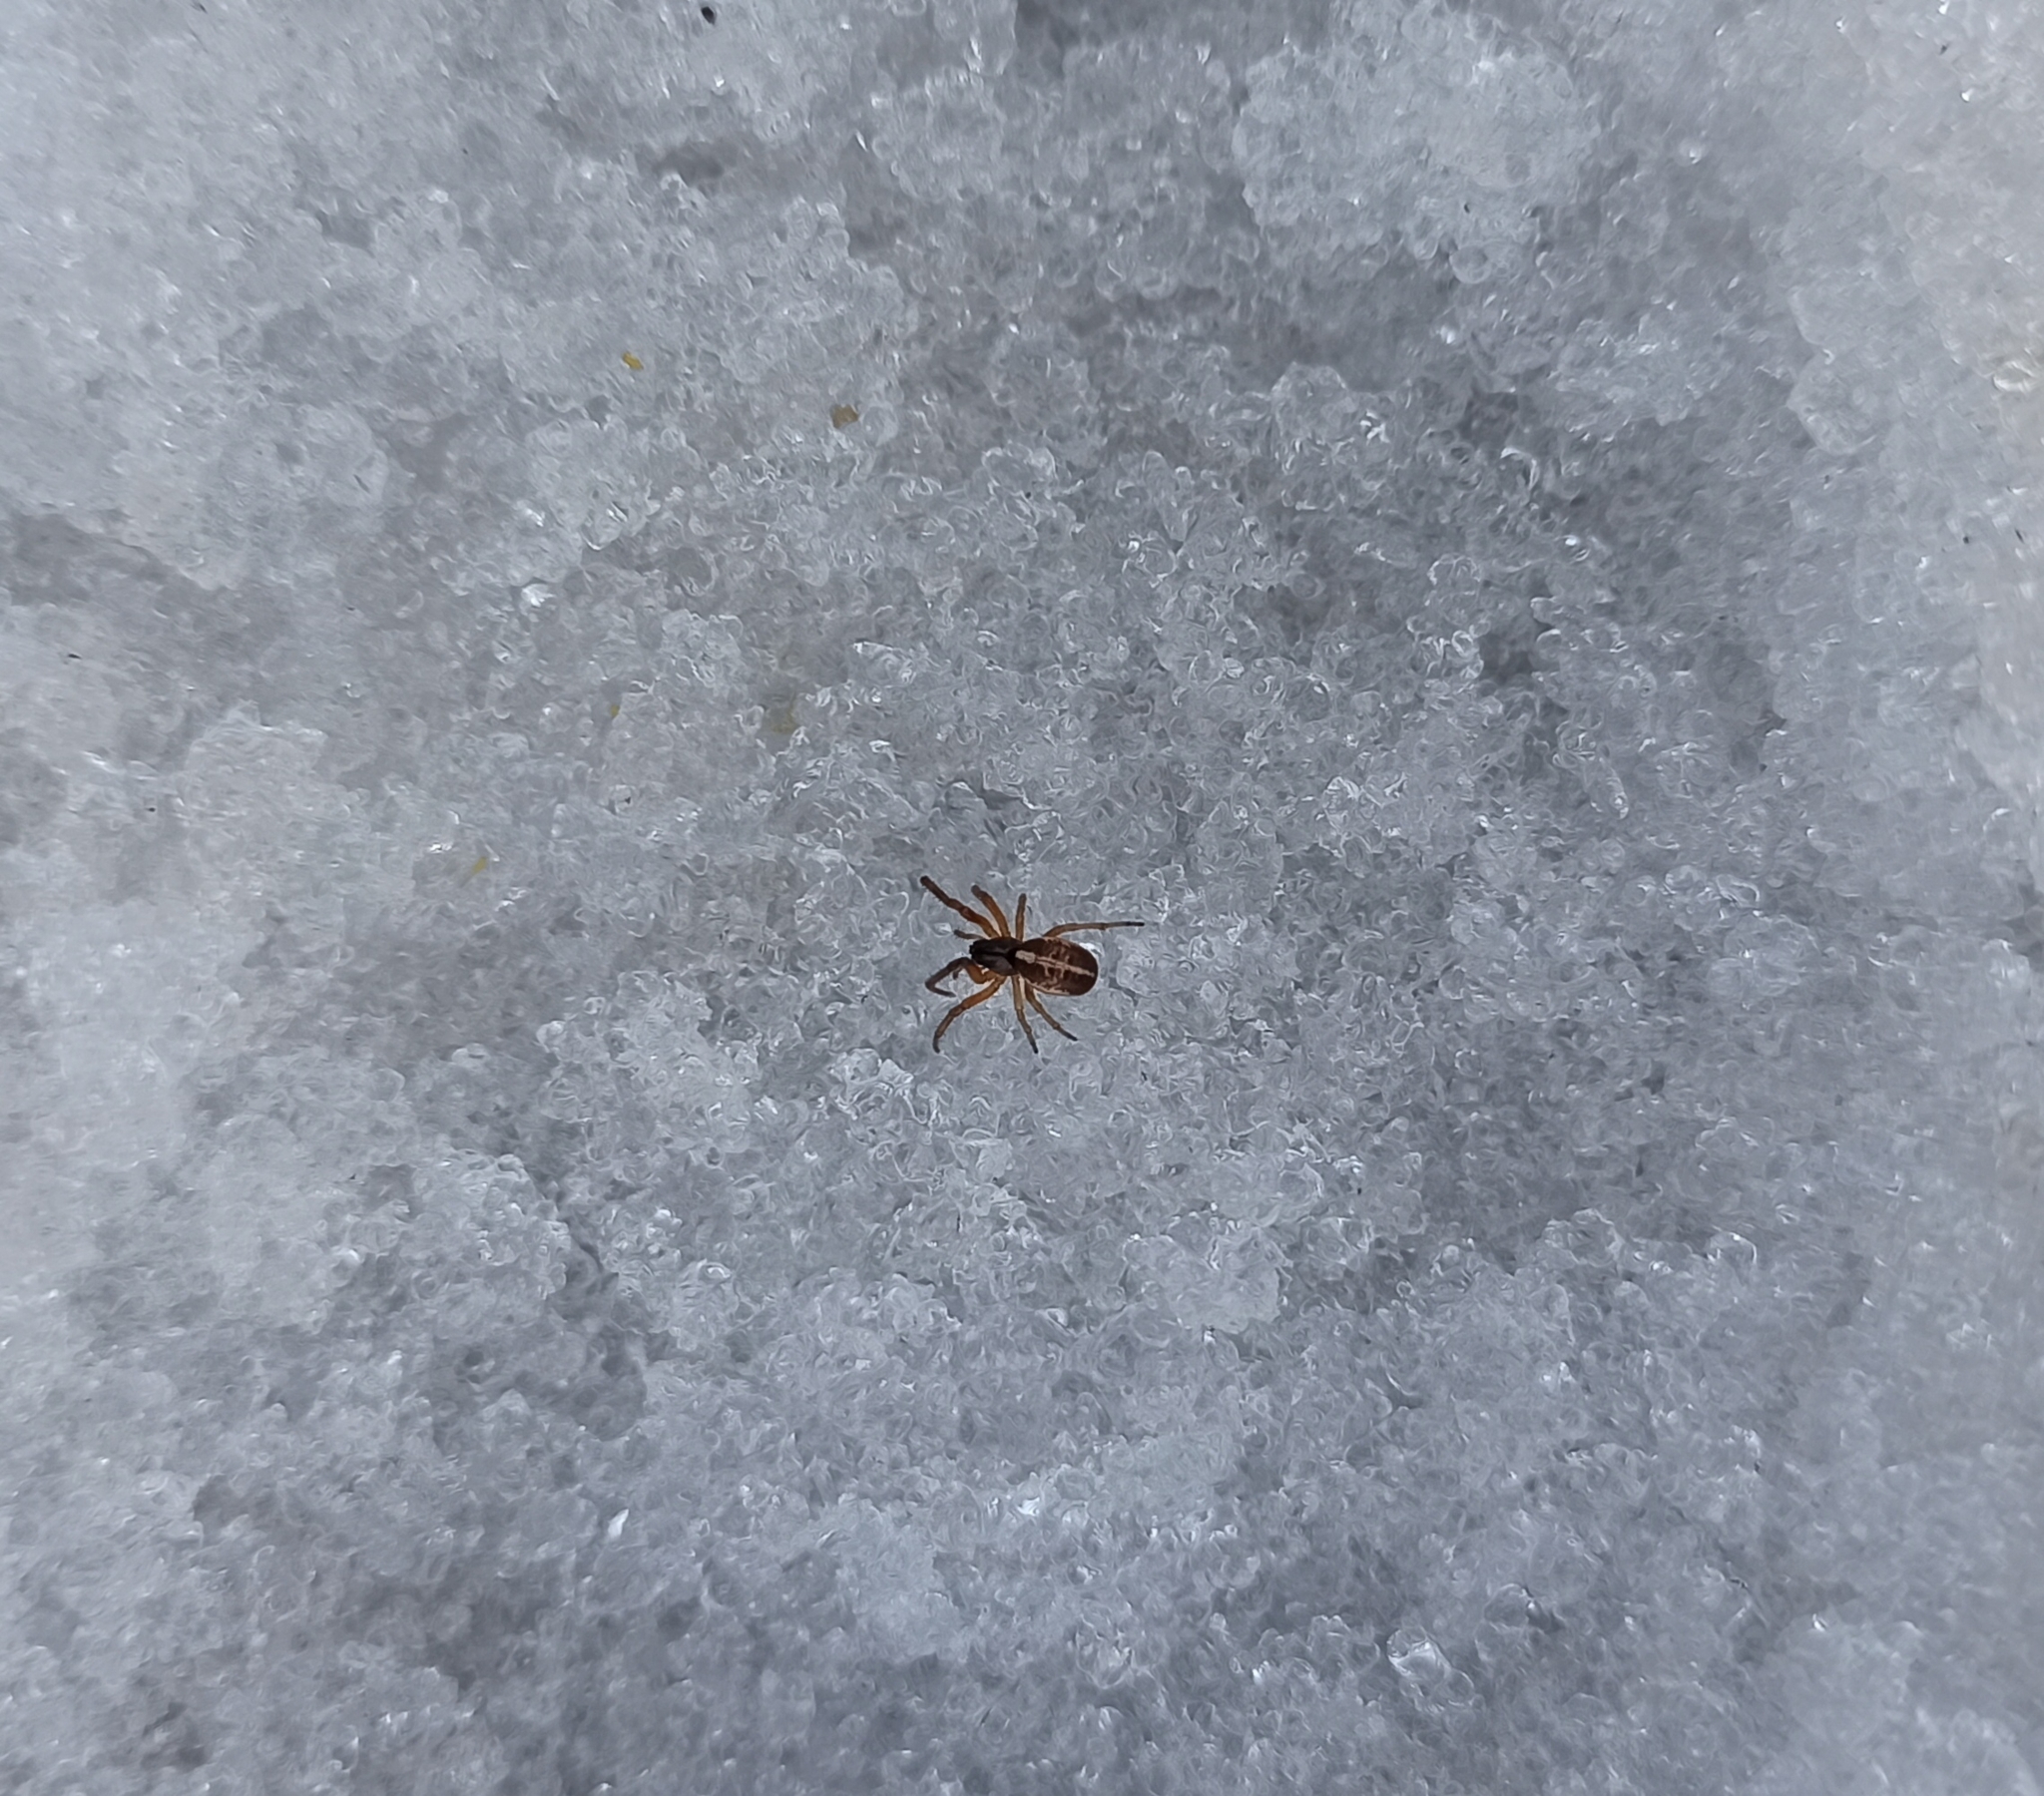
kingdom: Animalia
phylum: Arthropoda
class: Arachnida
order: Araneae
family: Araneidae
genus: Singa
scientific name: Singa
